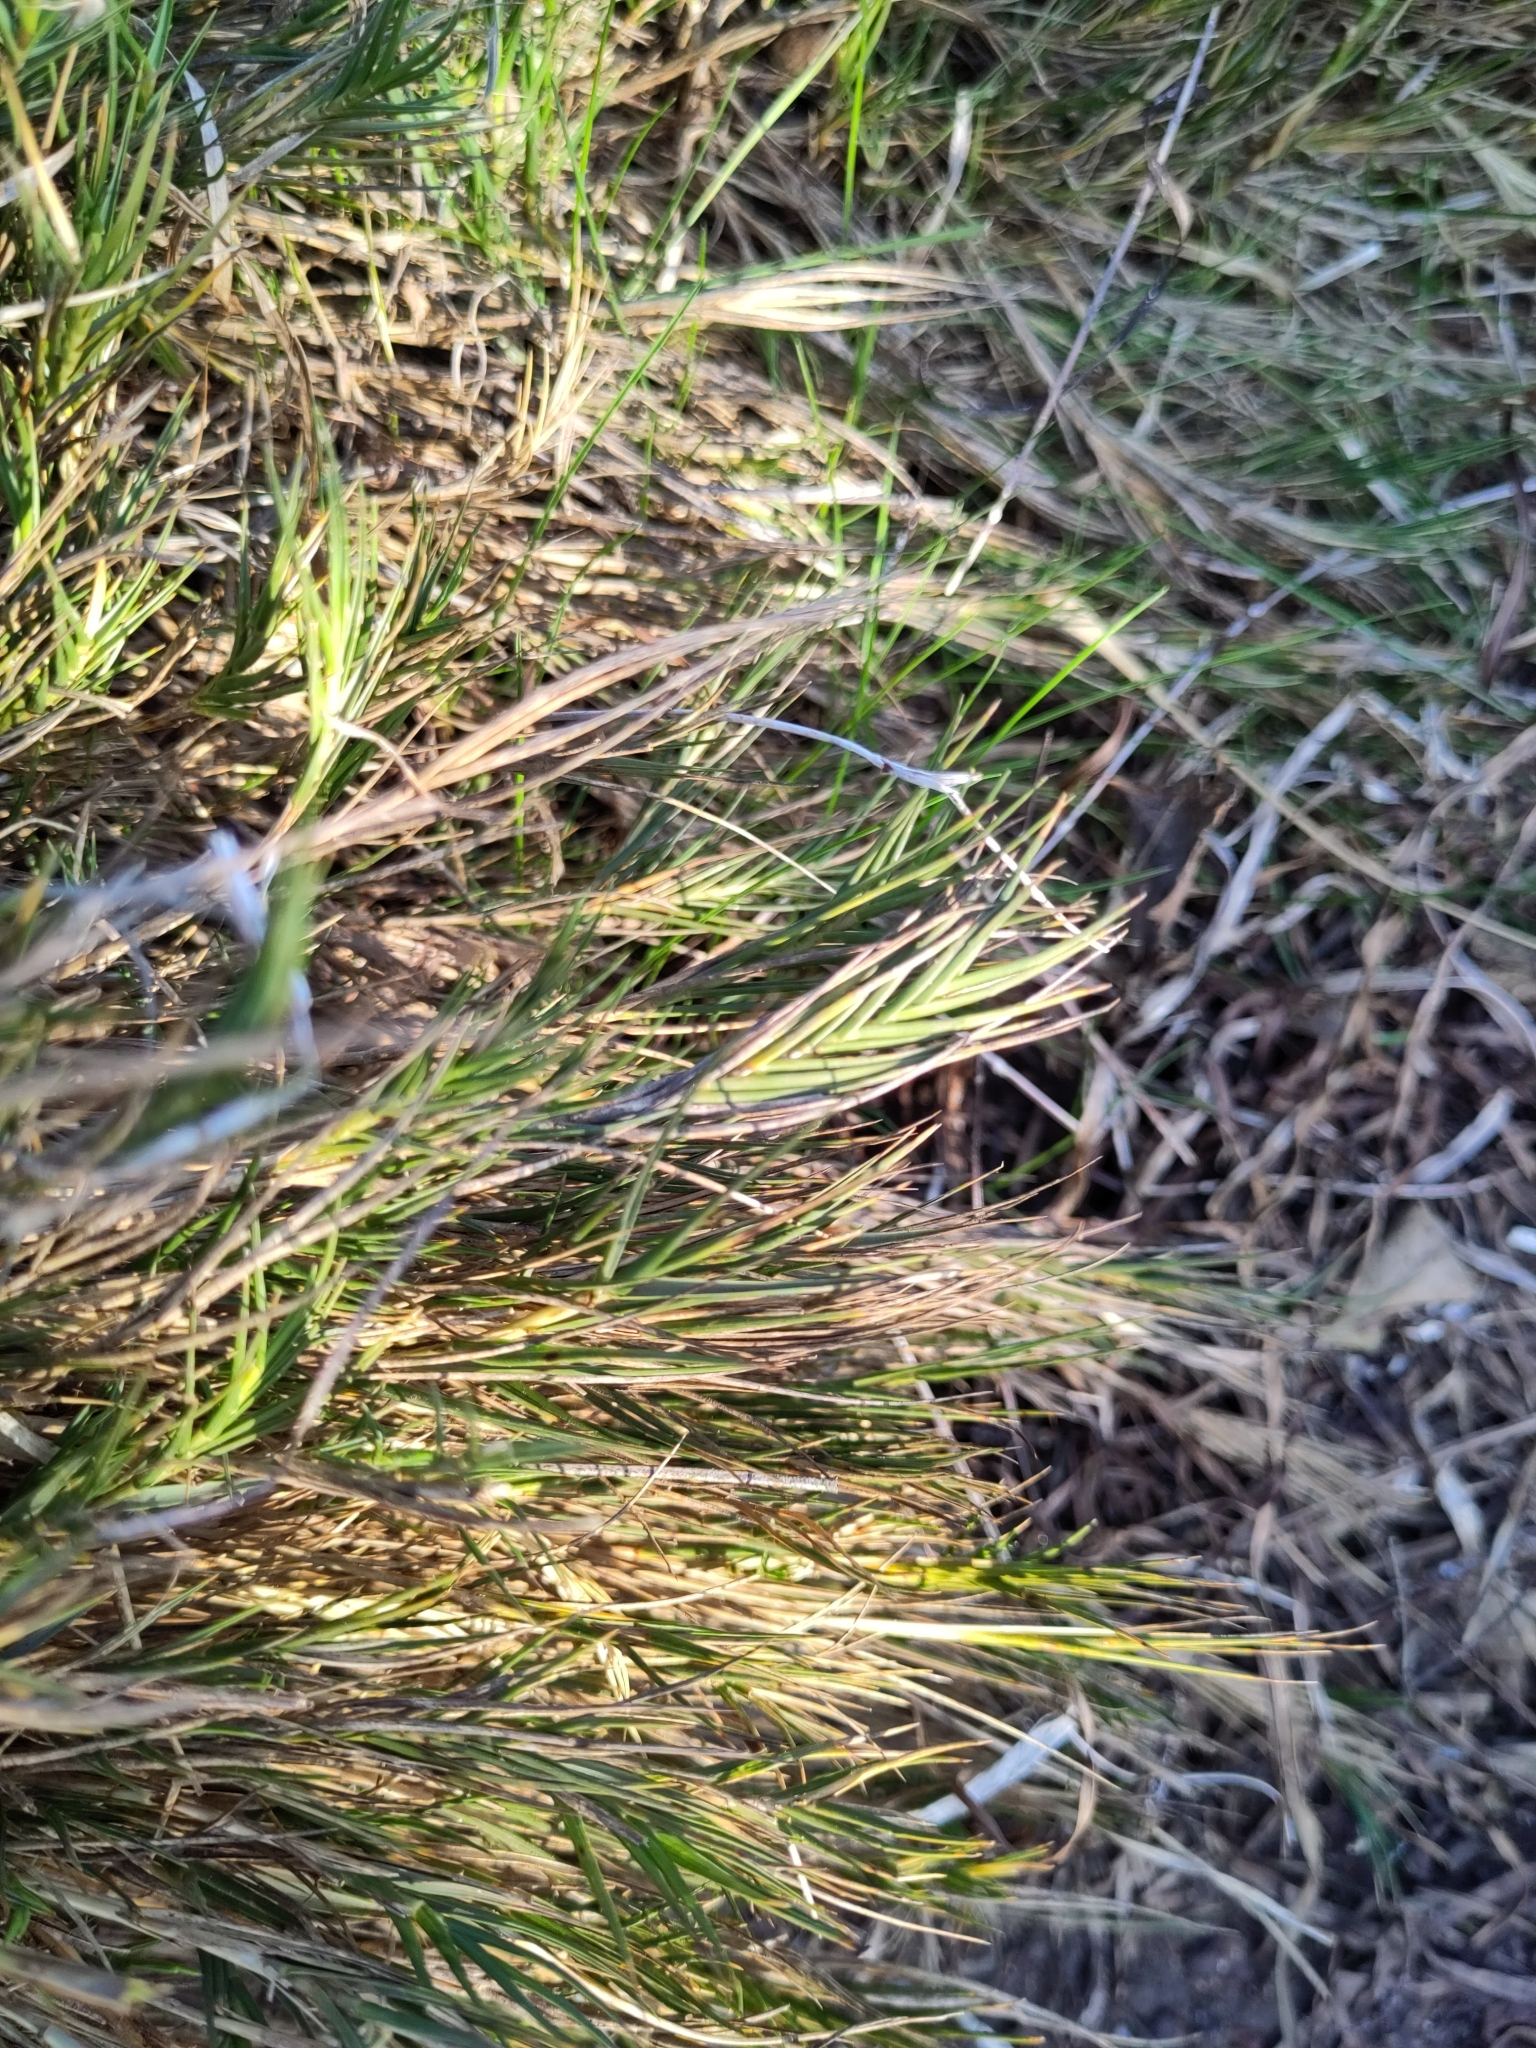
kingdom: Plantae
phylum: Tracheophyta
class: Liliopsida
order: Poales
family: Poaceae
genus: Distichlis
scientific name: Distichlis distichophylla
